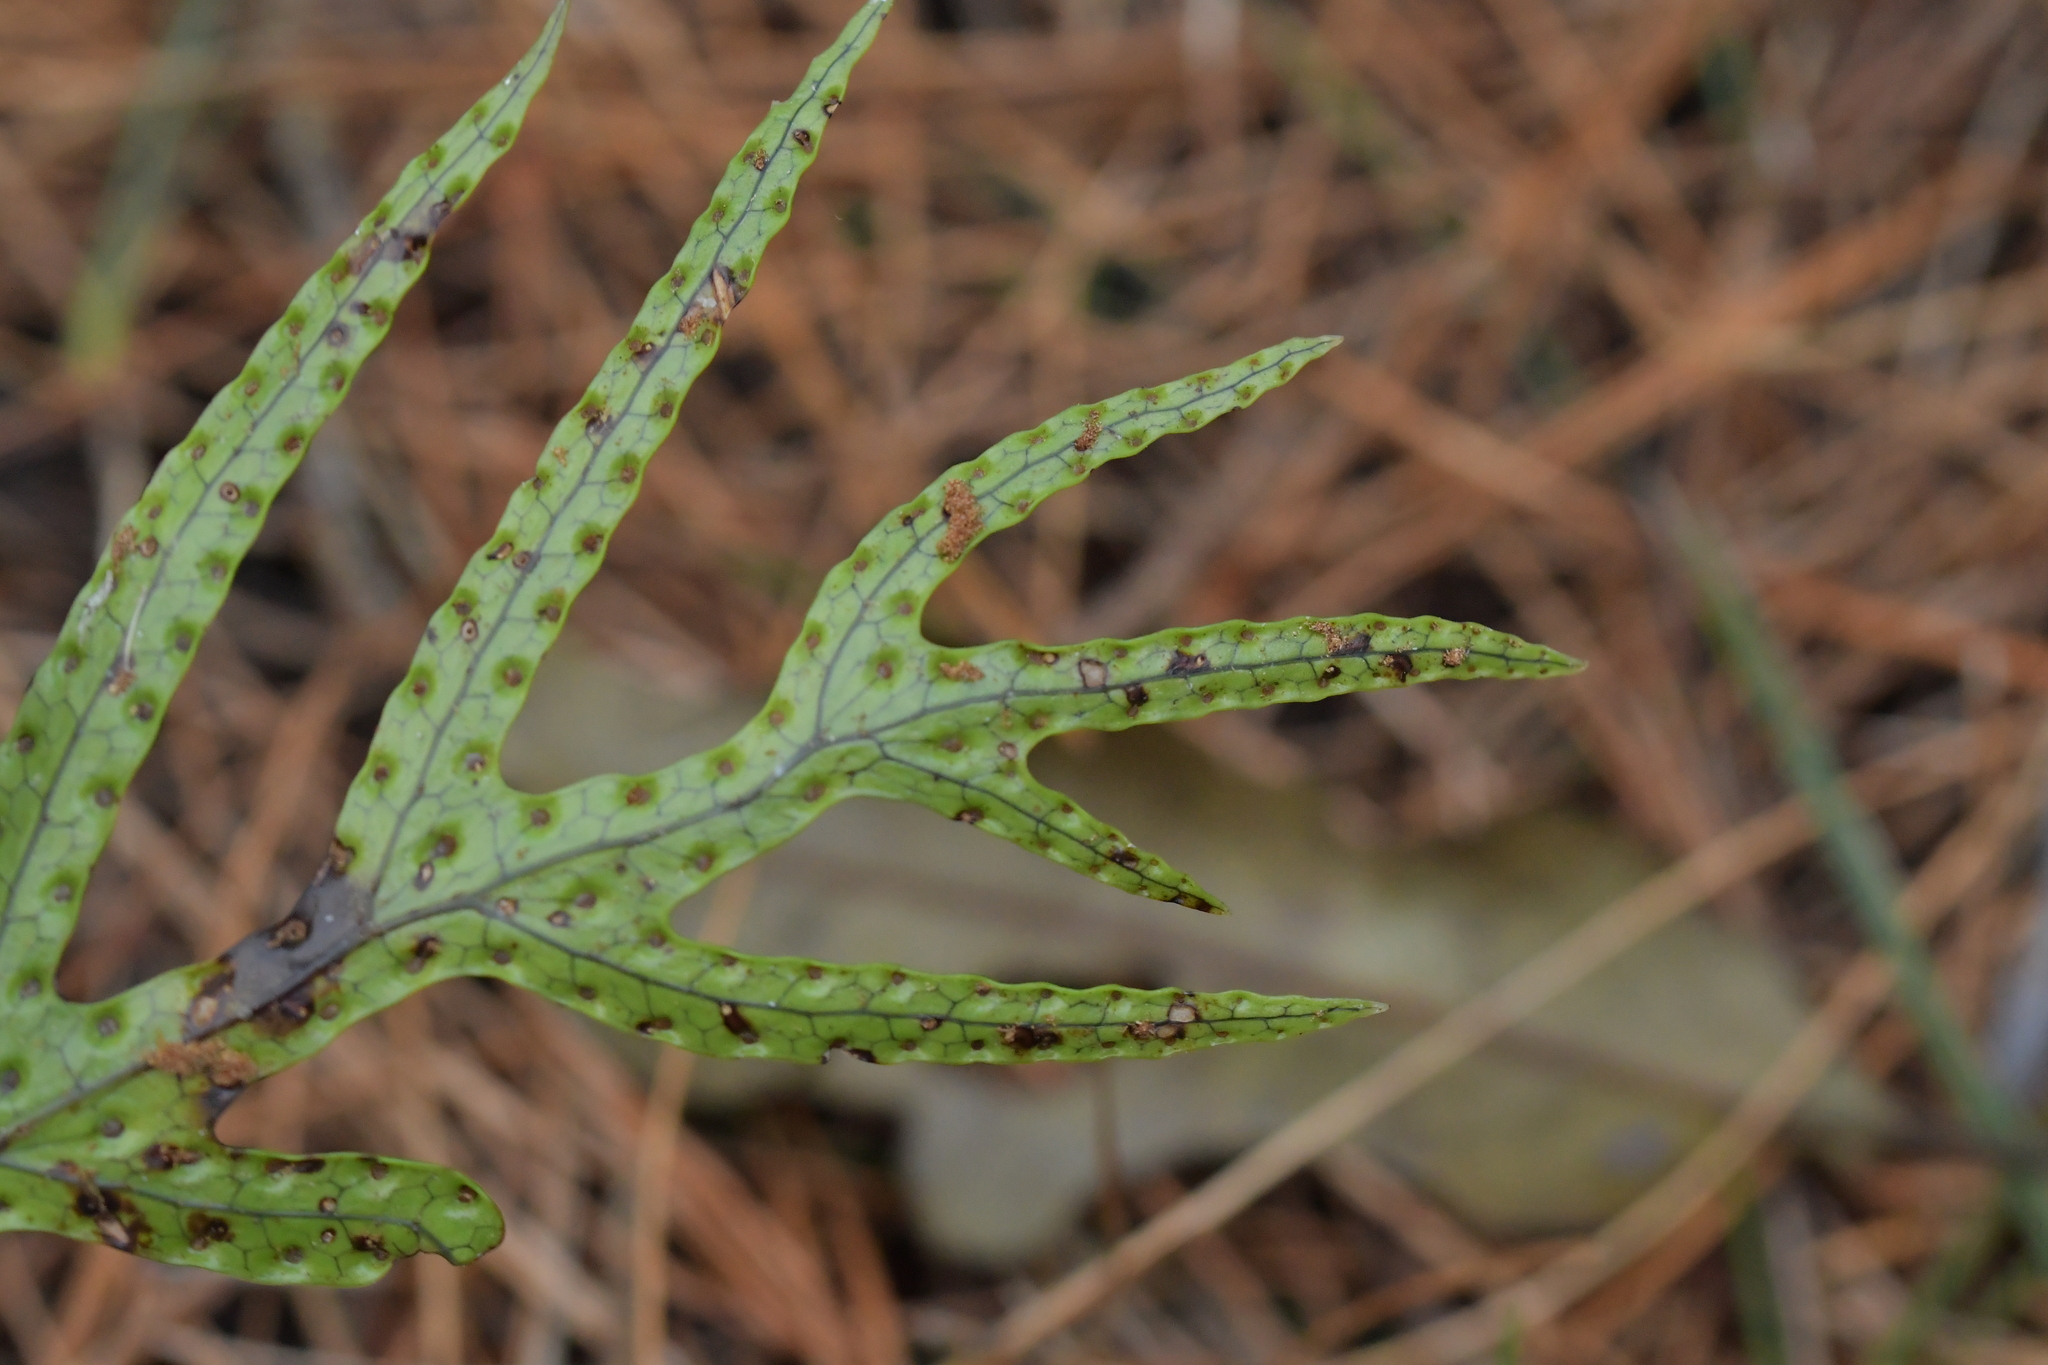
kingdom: Plantae
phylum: Tracheophyta
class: Polypodiopsida
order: Polypodiales
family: Polypodiaceae
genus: Lecanopteris
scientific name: Lecanopteris pustulata
